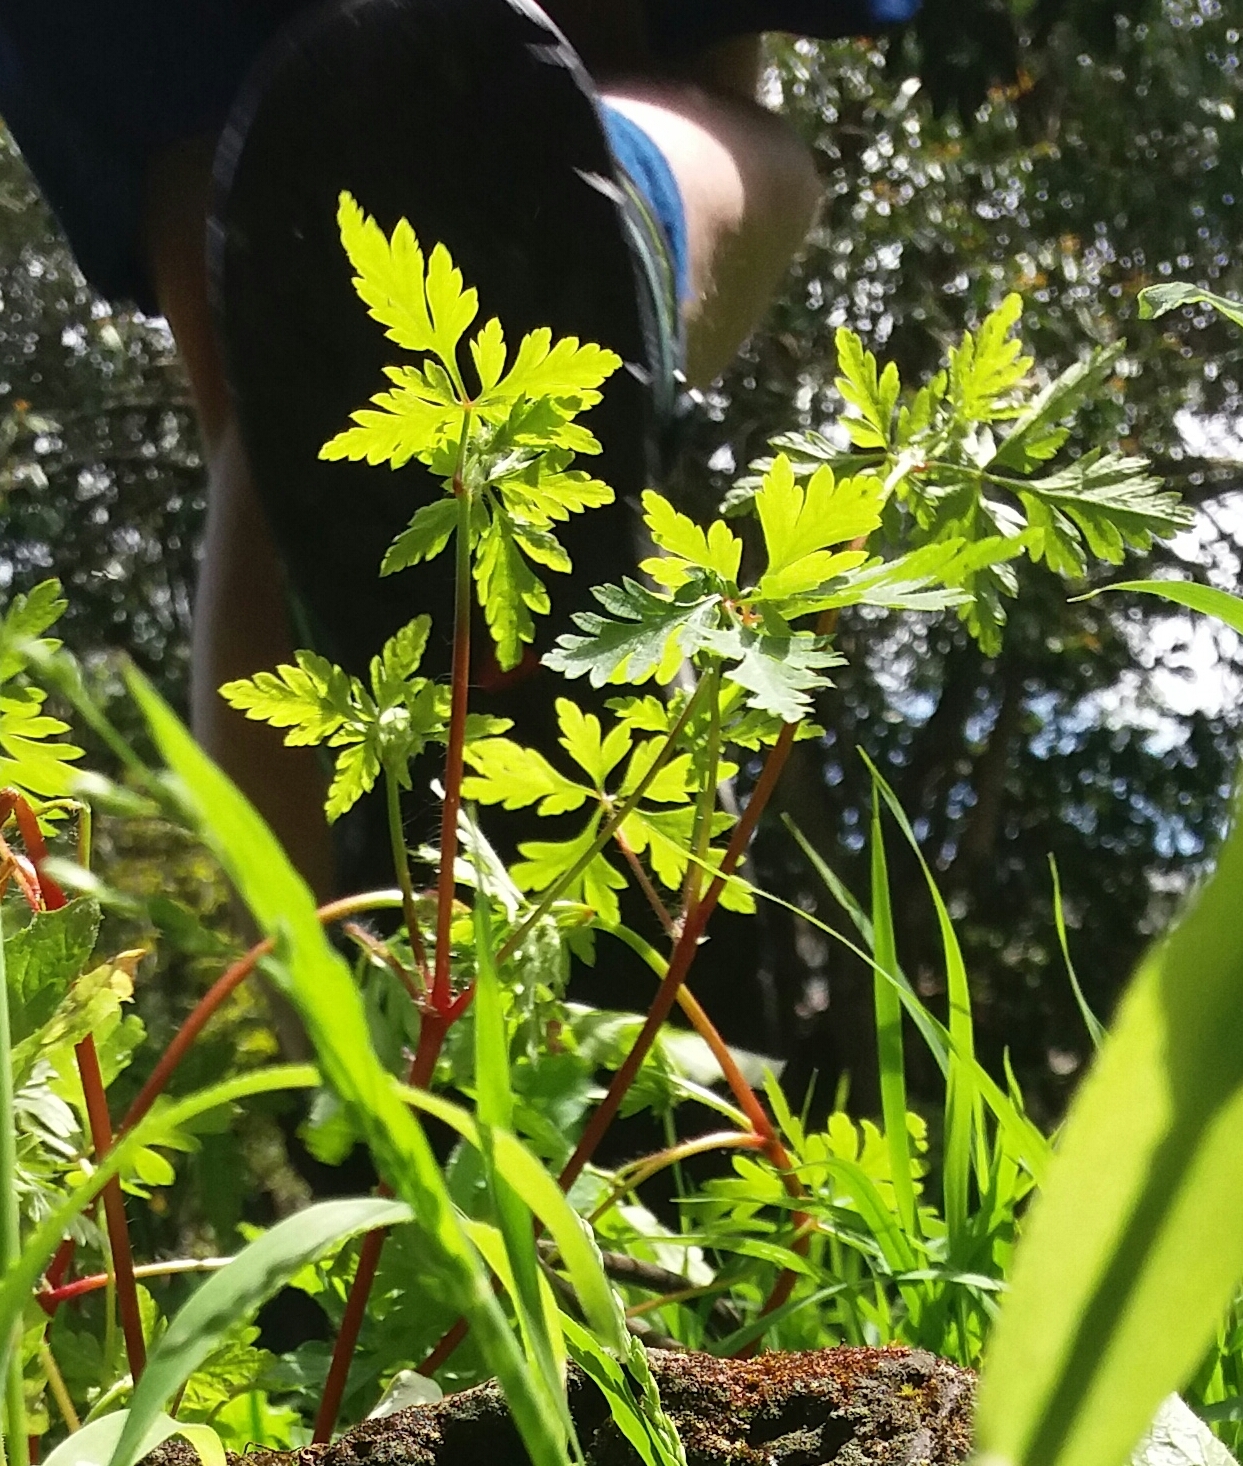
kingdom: Plantae
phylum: Tracheophyta
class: Magnoliopsida
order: Geraniales
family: Geraniaceae
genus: Geranium
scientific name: Geranium robertianum
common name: Herb-robert
